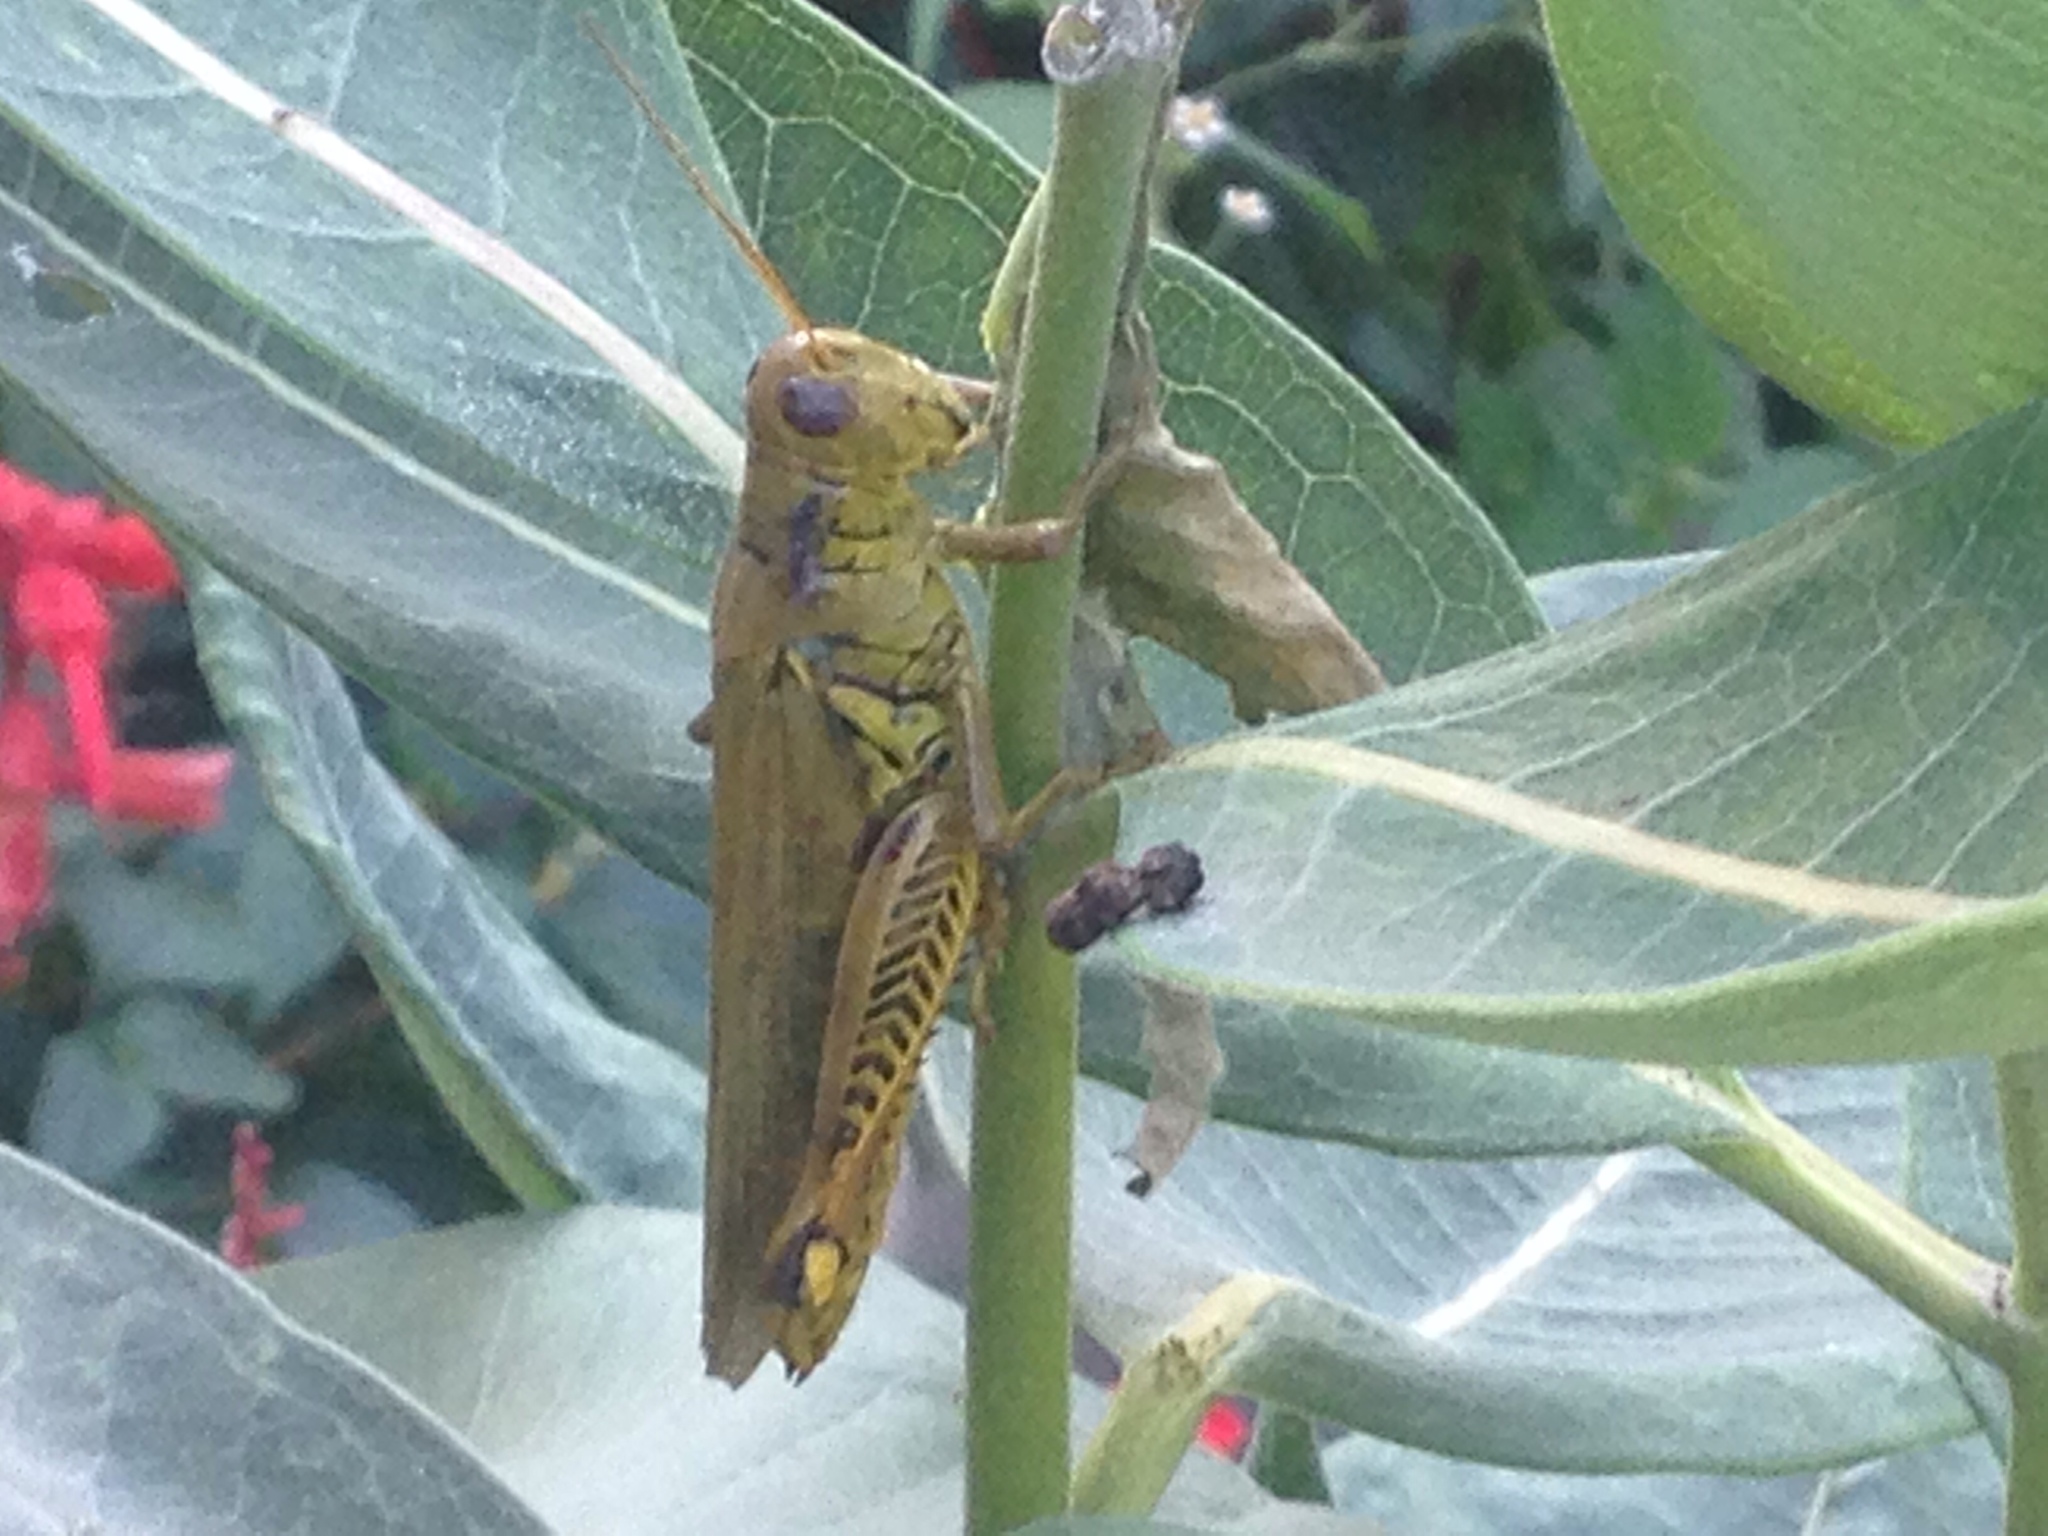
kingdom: Animalia
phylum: Arthropoda
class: Insecta
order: Orthoptera
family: Acrididae
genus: Melanoplus
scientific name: Melanoplus differentialis
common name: Differential grasshopper
